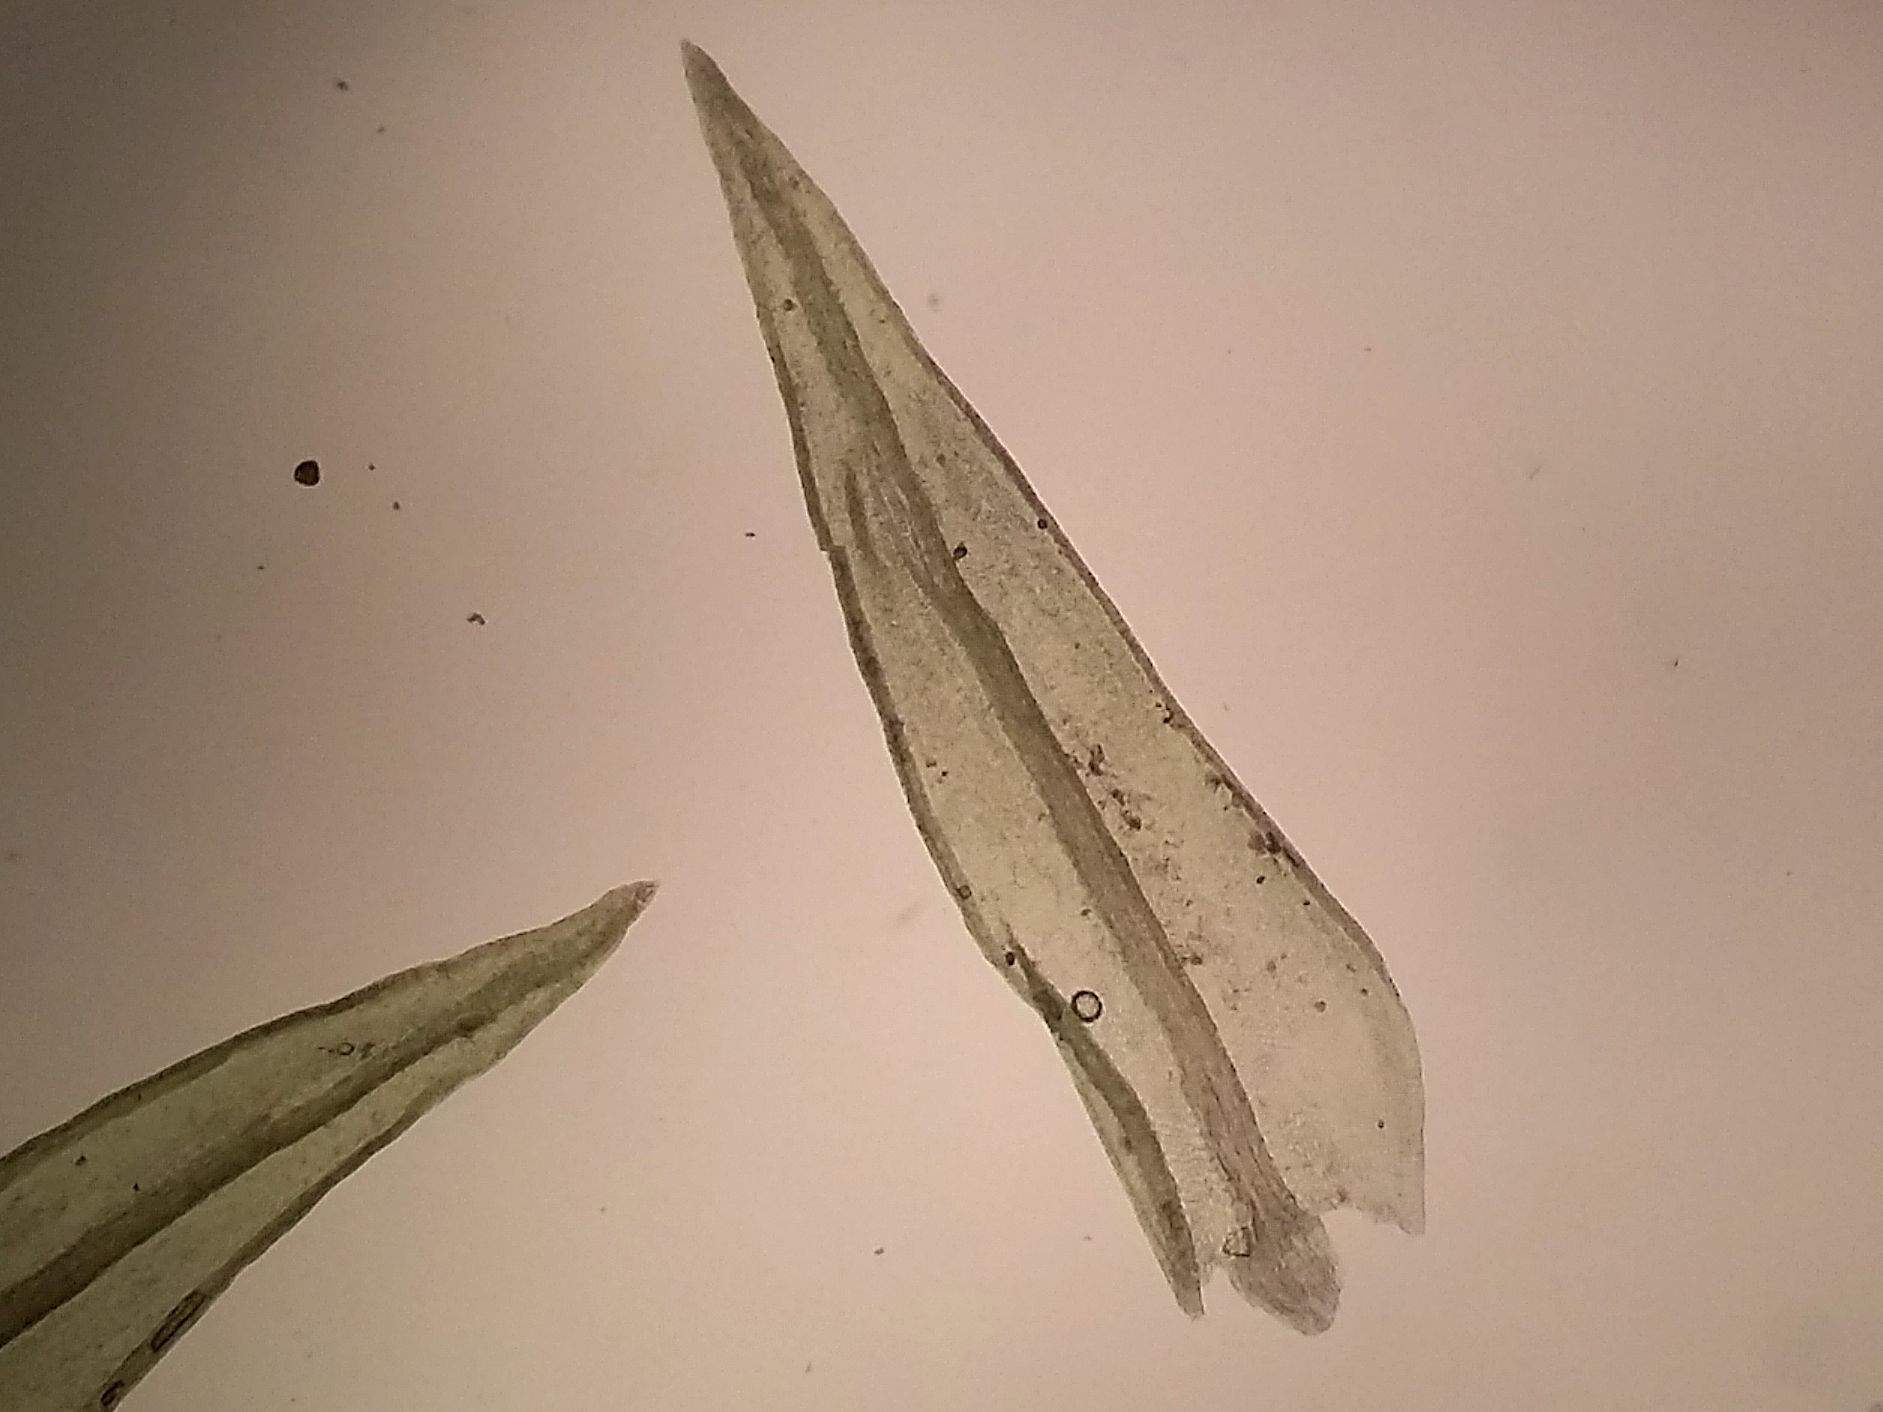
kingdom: Plantae
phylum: Bryophyta
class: Bryopsida
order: Pottiales
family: Pottiaceae
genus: Pseudocrossidium
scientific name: Pseudocrossidium hornschuchianum
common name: Hornschuch's beard-moss
